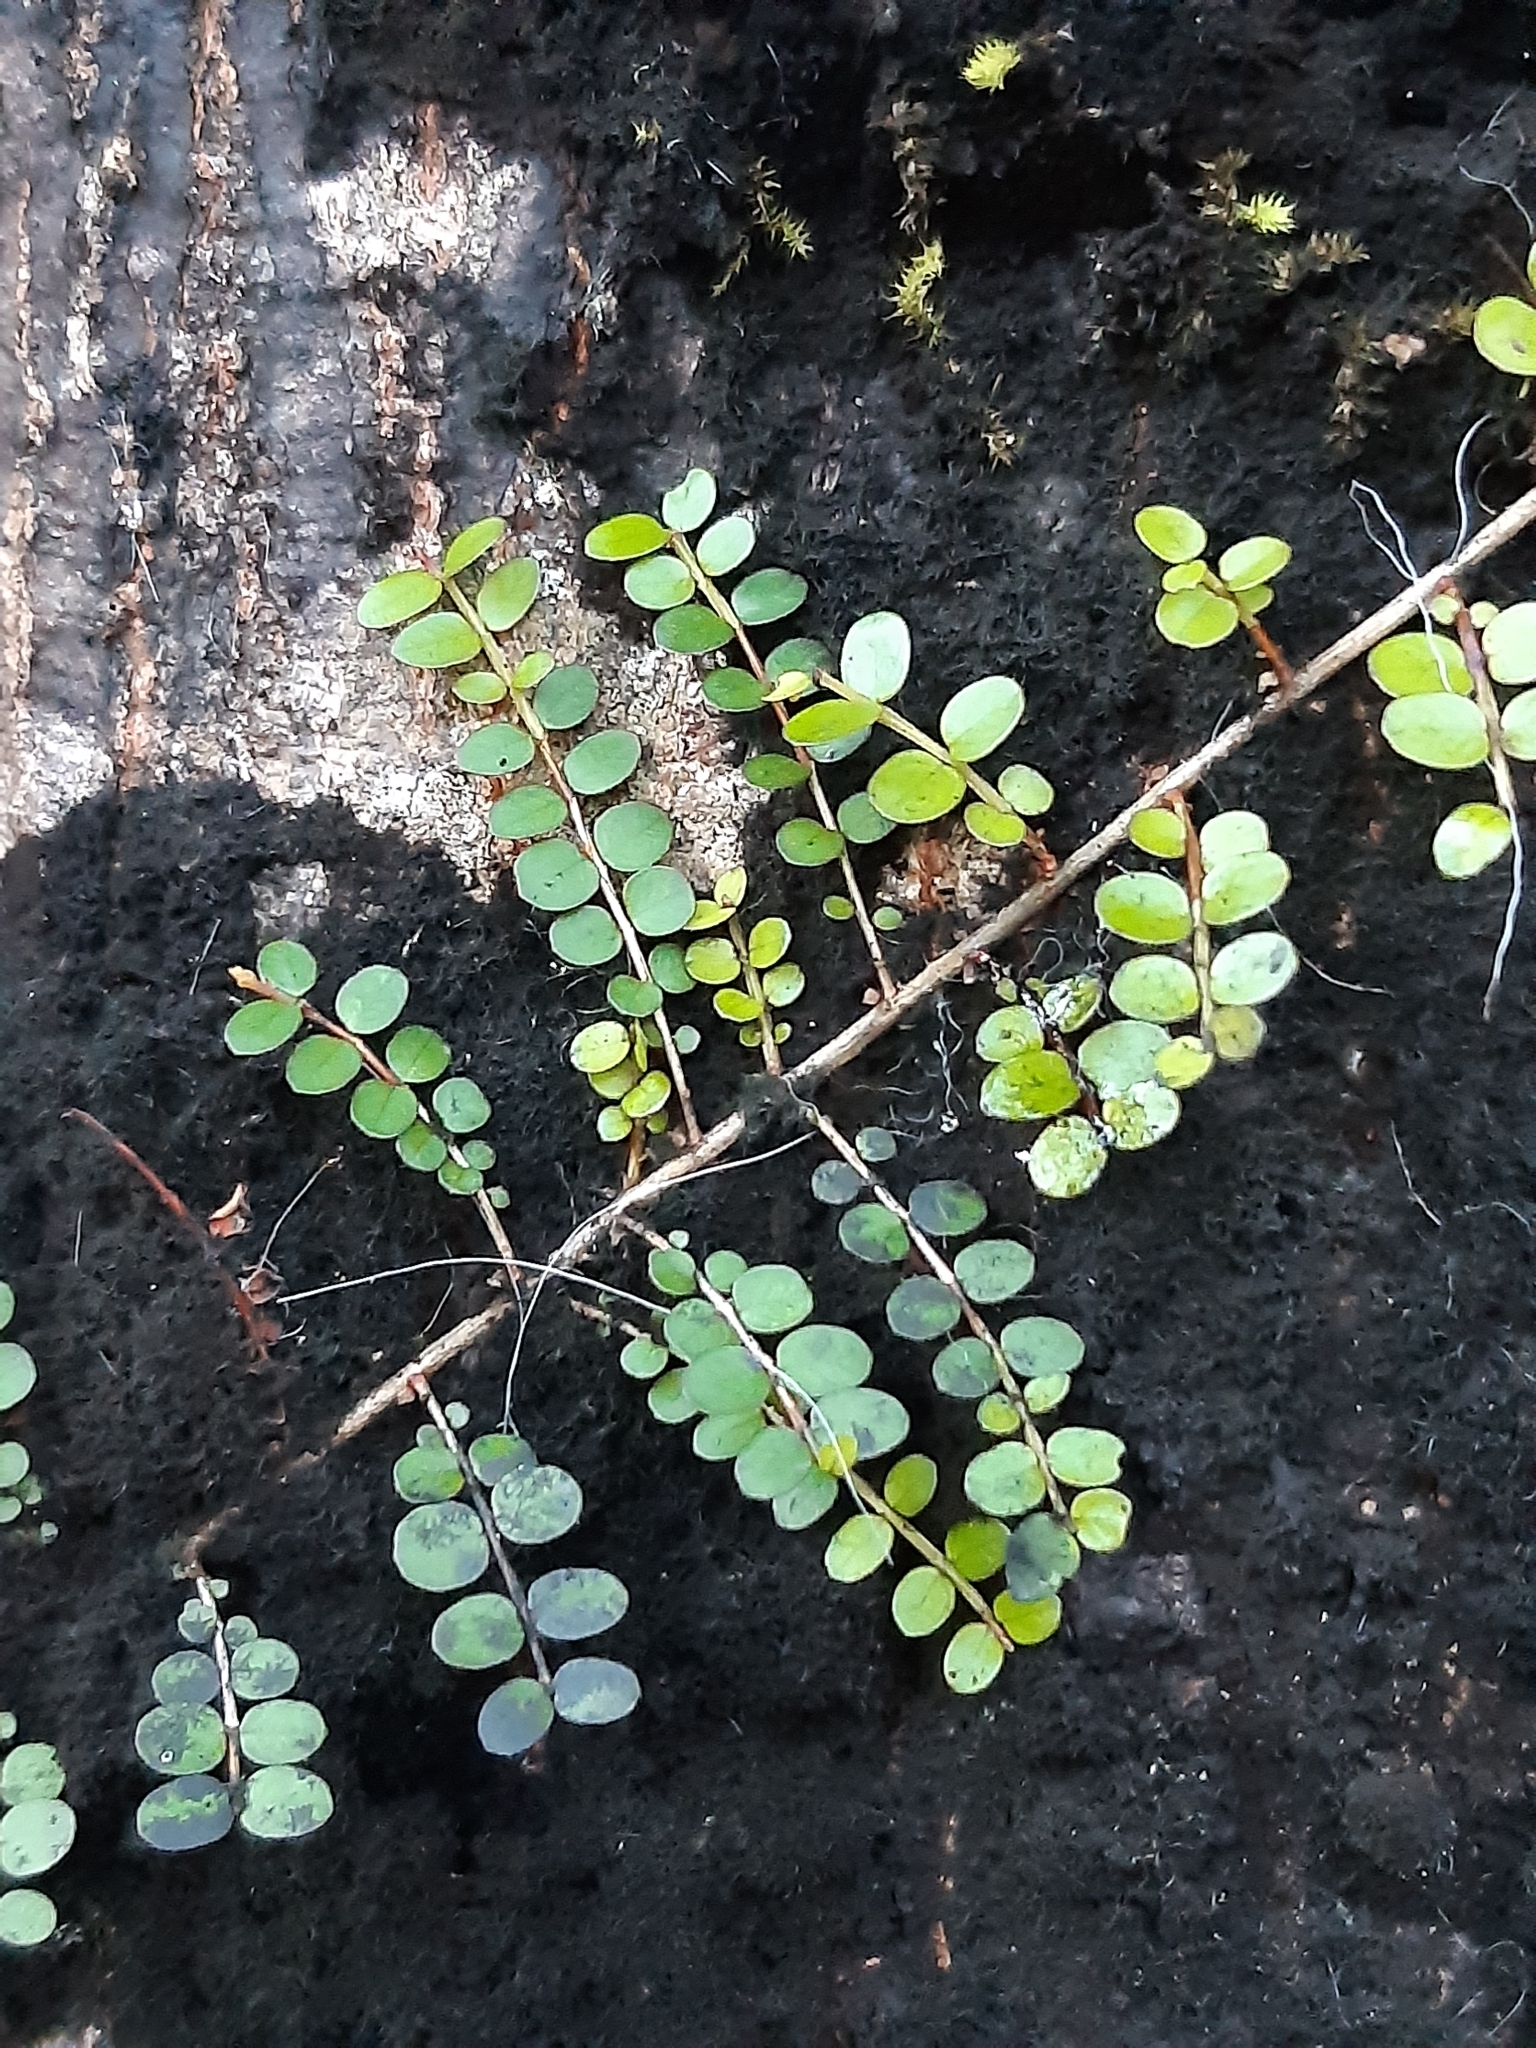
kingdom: Plantae
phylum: Tracheophyta
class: Magnoliopsida
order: Myrtales
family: Myrtaceae
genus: Metrosideros
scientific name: Metrosideros diffusa
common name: Small ratavine
